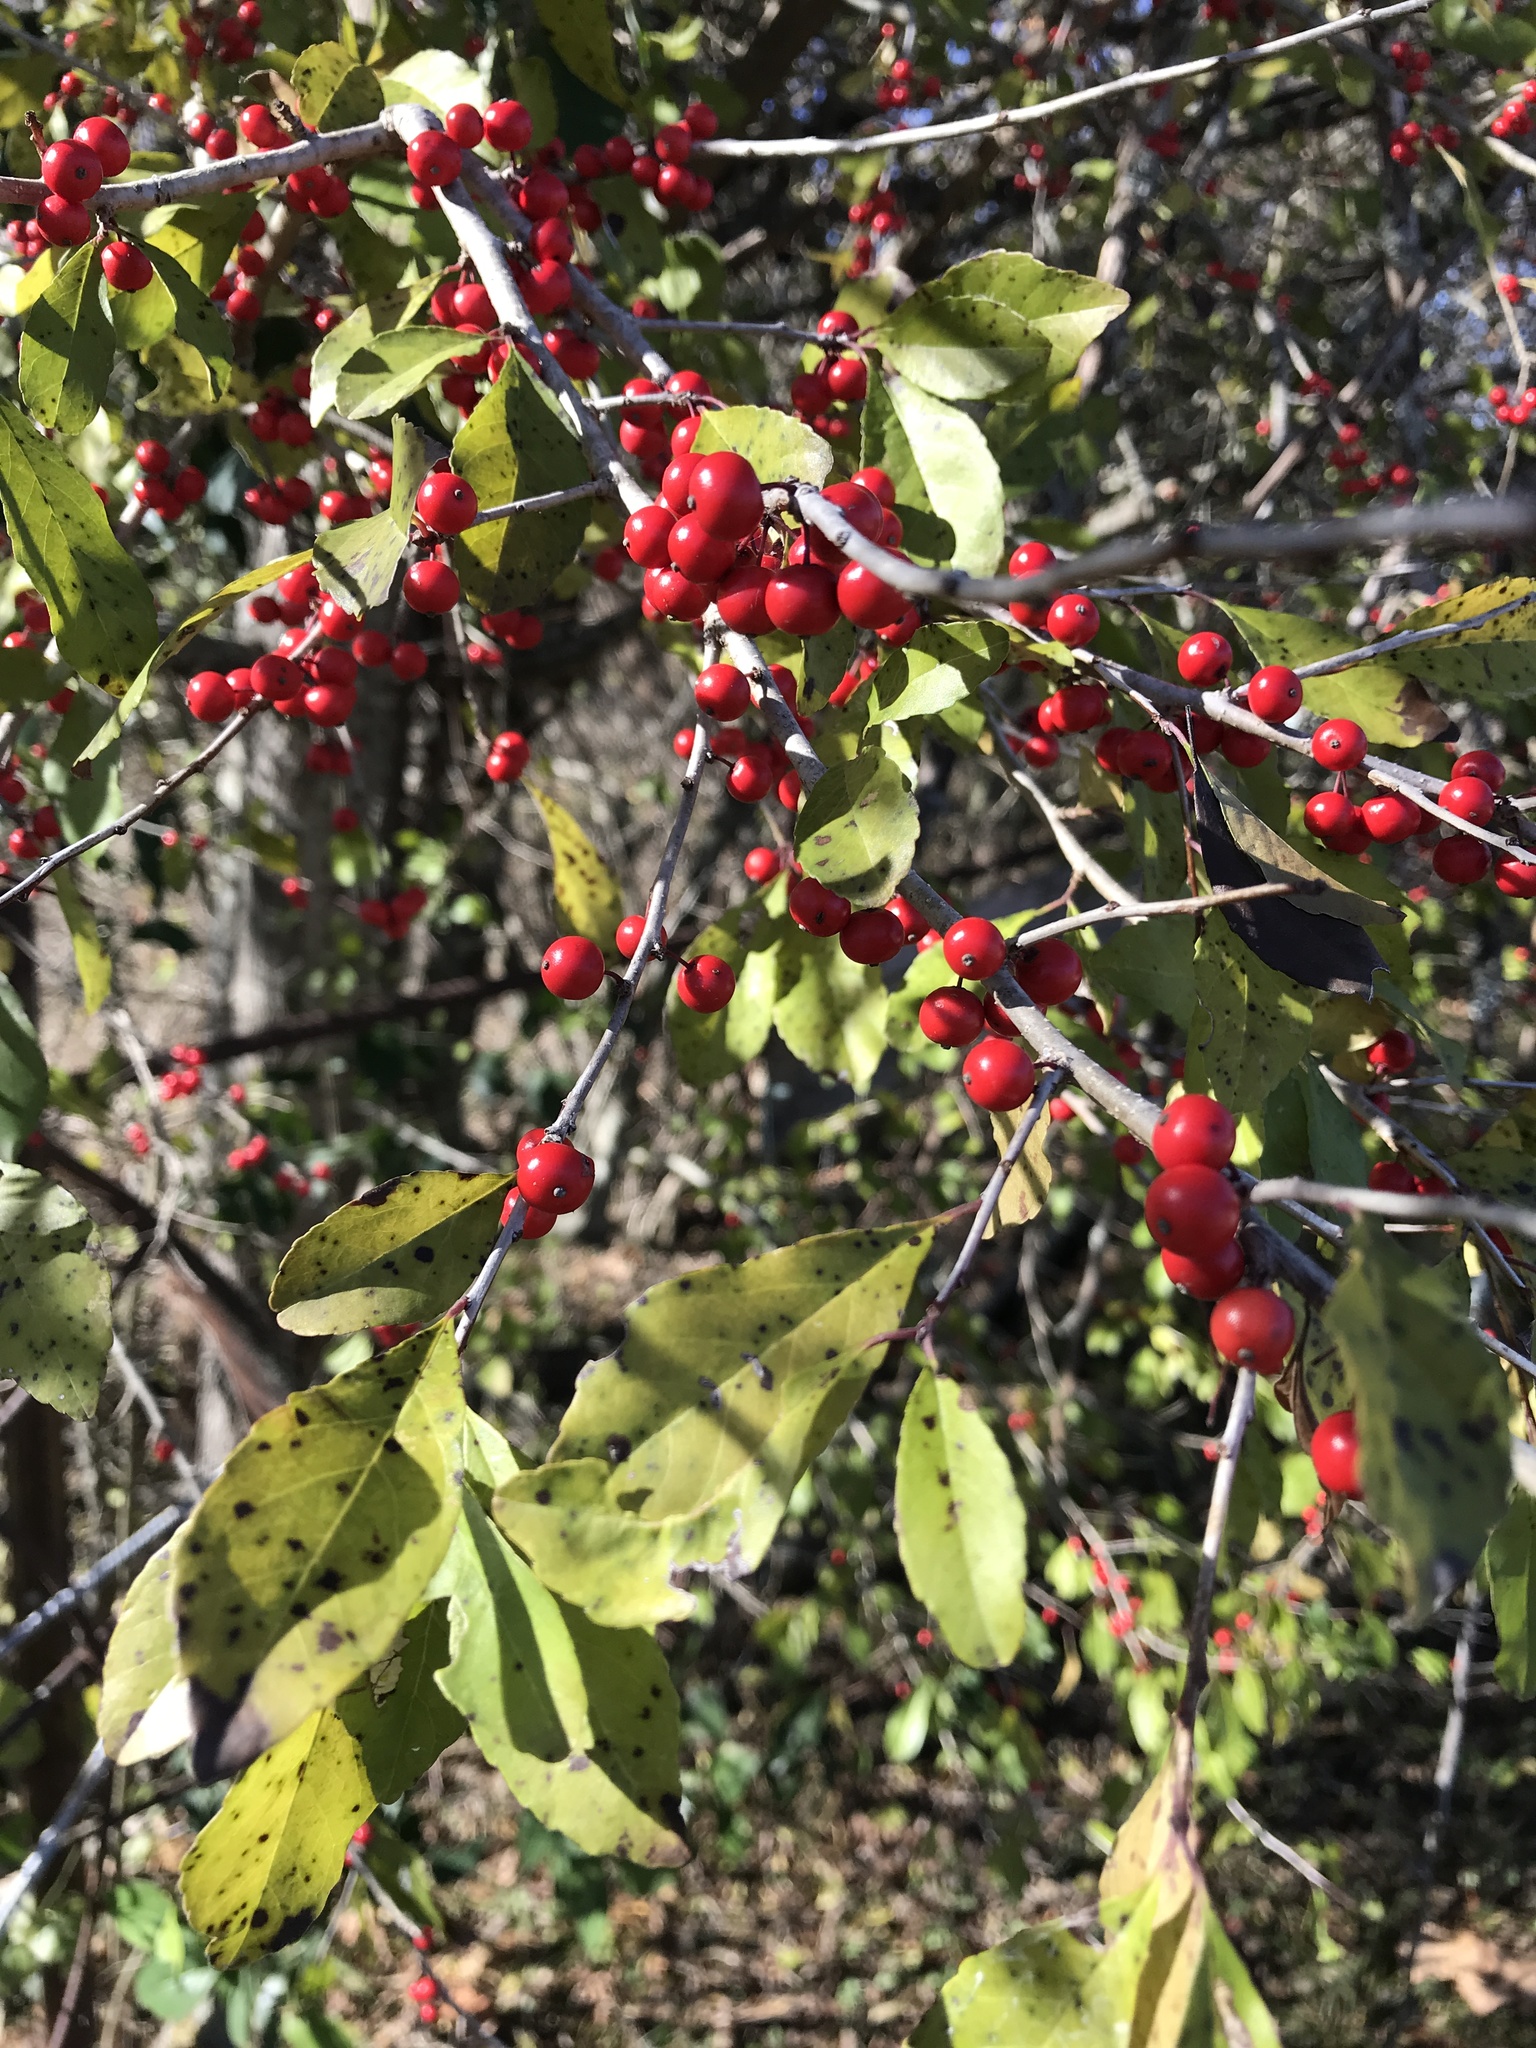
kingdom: Plantae
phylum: Tracheophyta
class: Magnoliopsida
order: Aquifoliales
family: Aquifoliaceae
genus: Ilex
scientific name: Ilex decidua
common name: Possum-haw
